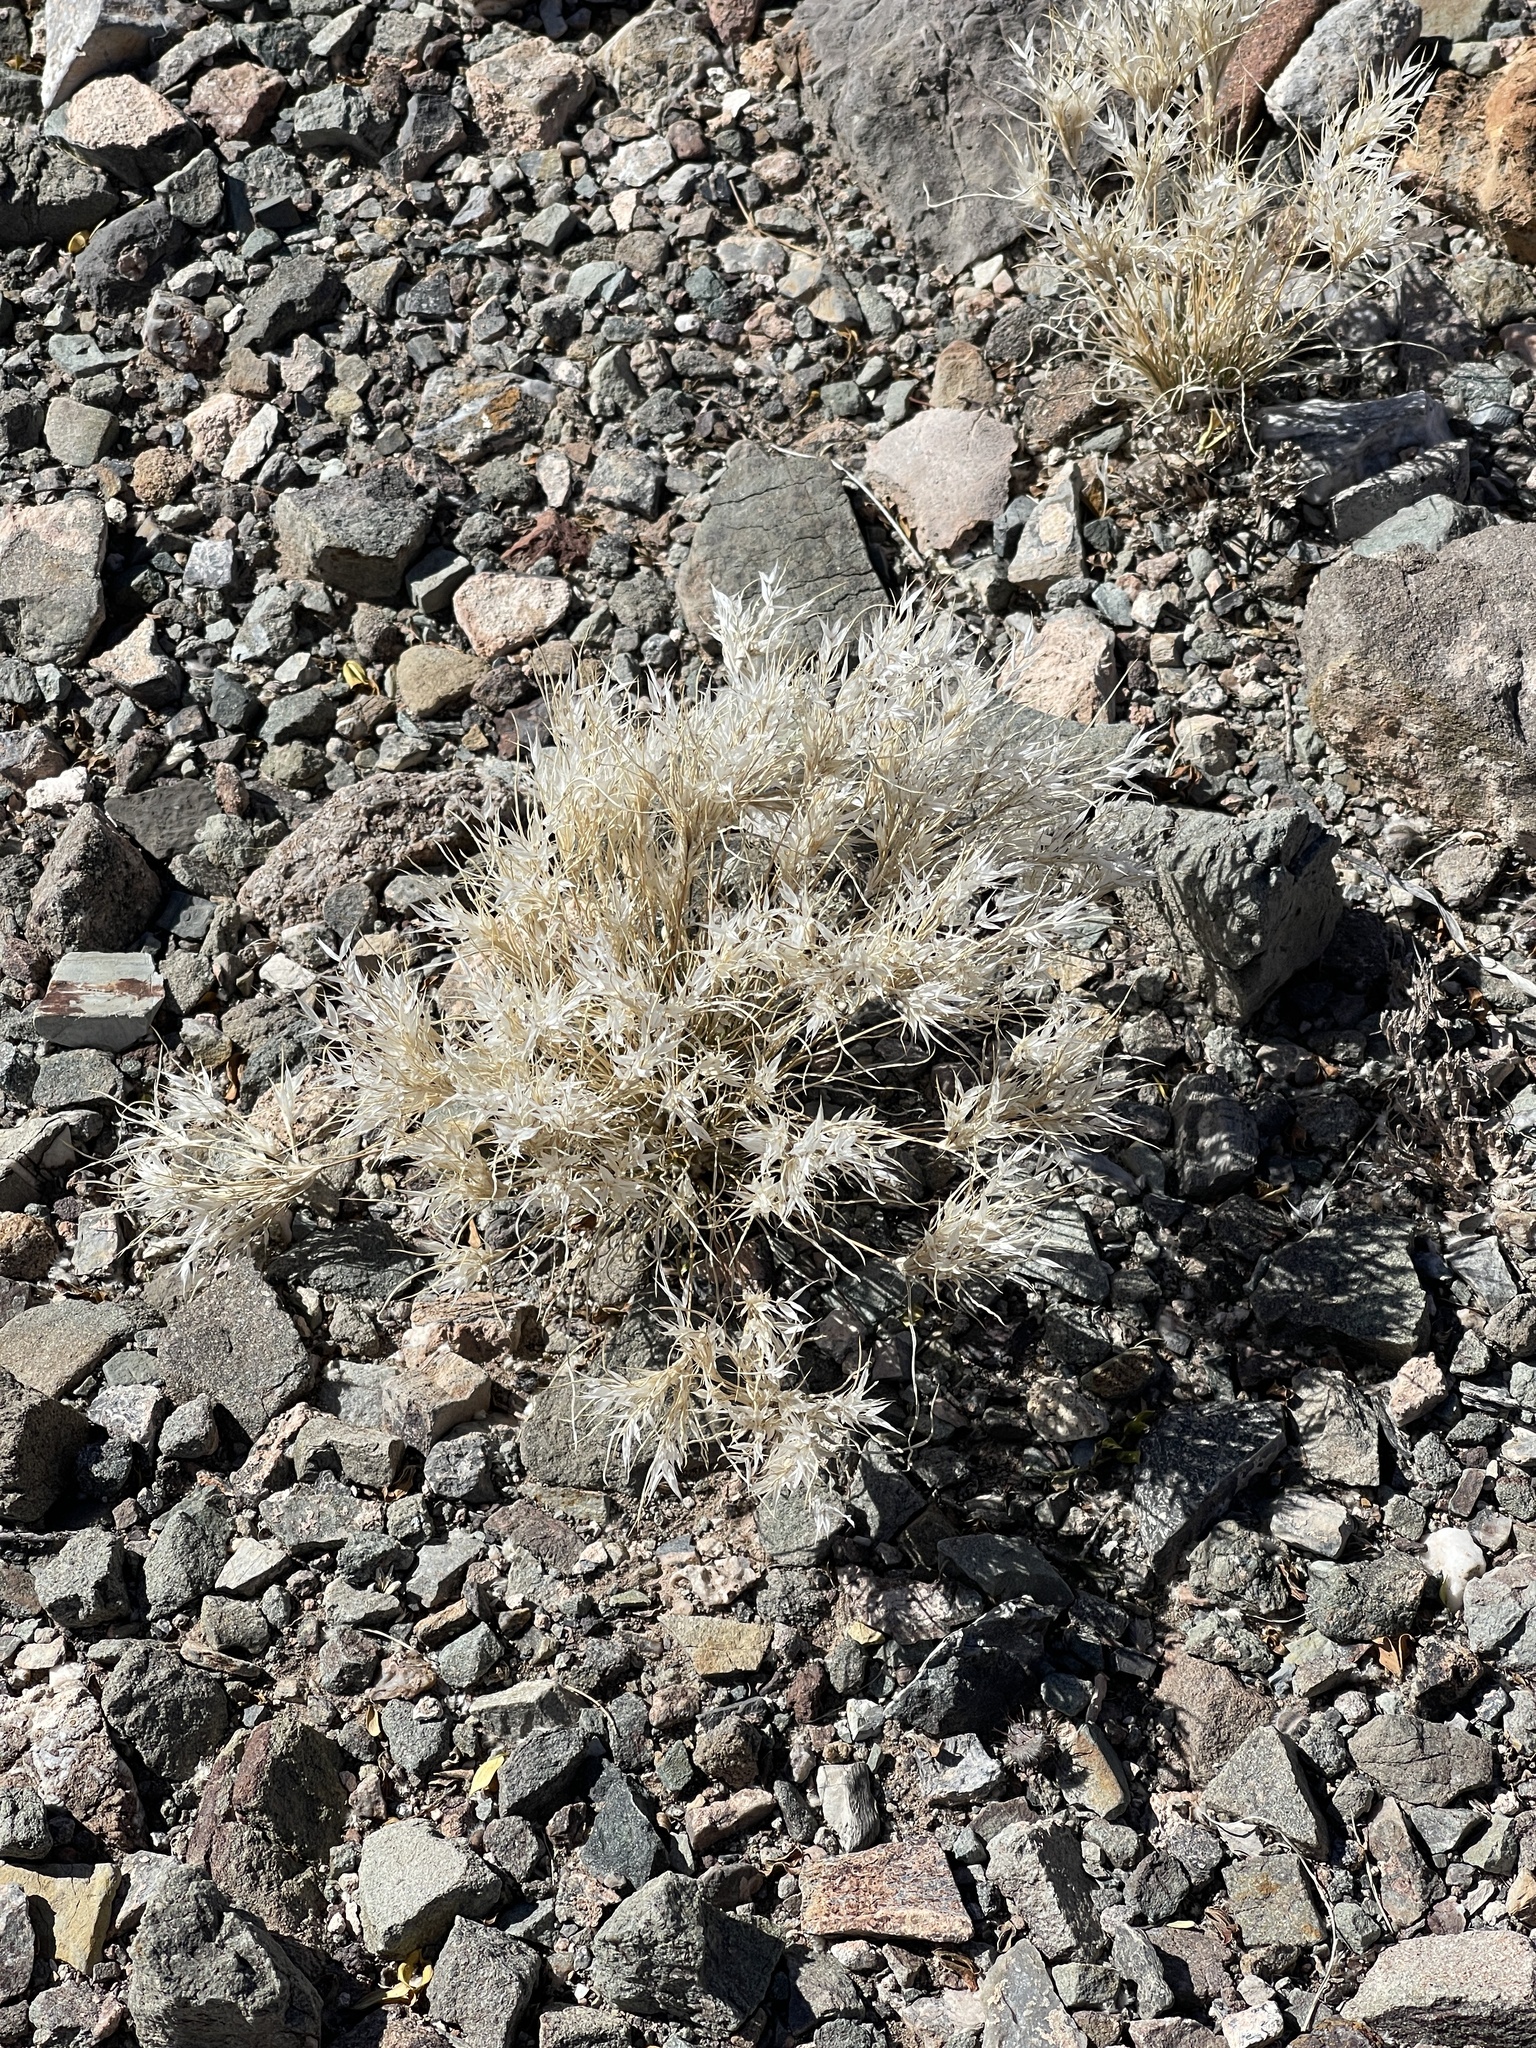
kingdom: Plantae
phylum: Tracheophyta
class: Liliopsida
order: Poales
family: Poaceae
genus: Dasyochloa
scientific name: Dasyochloa pulchella
